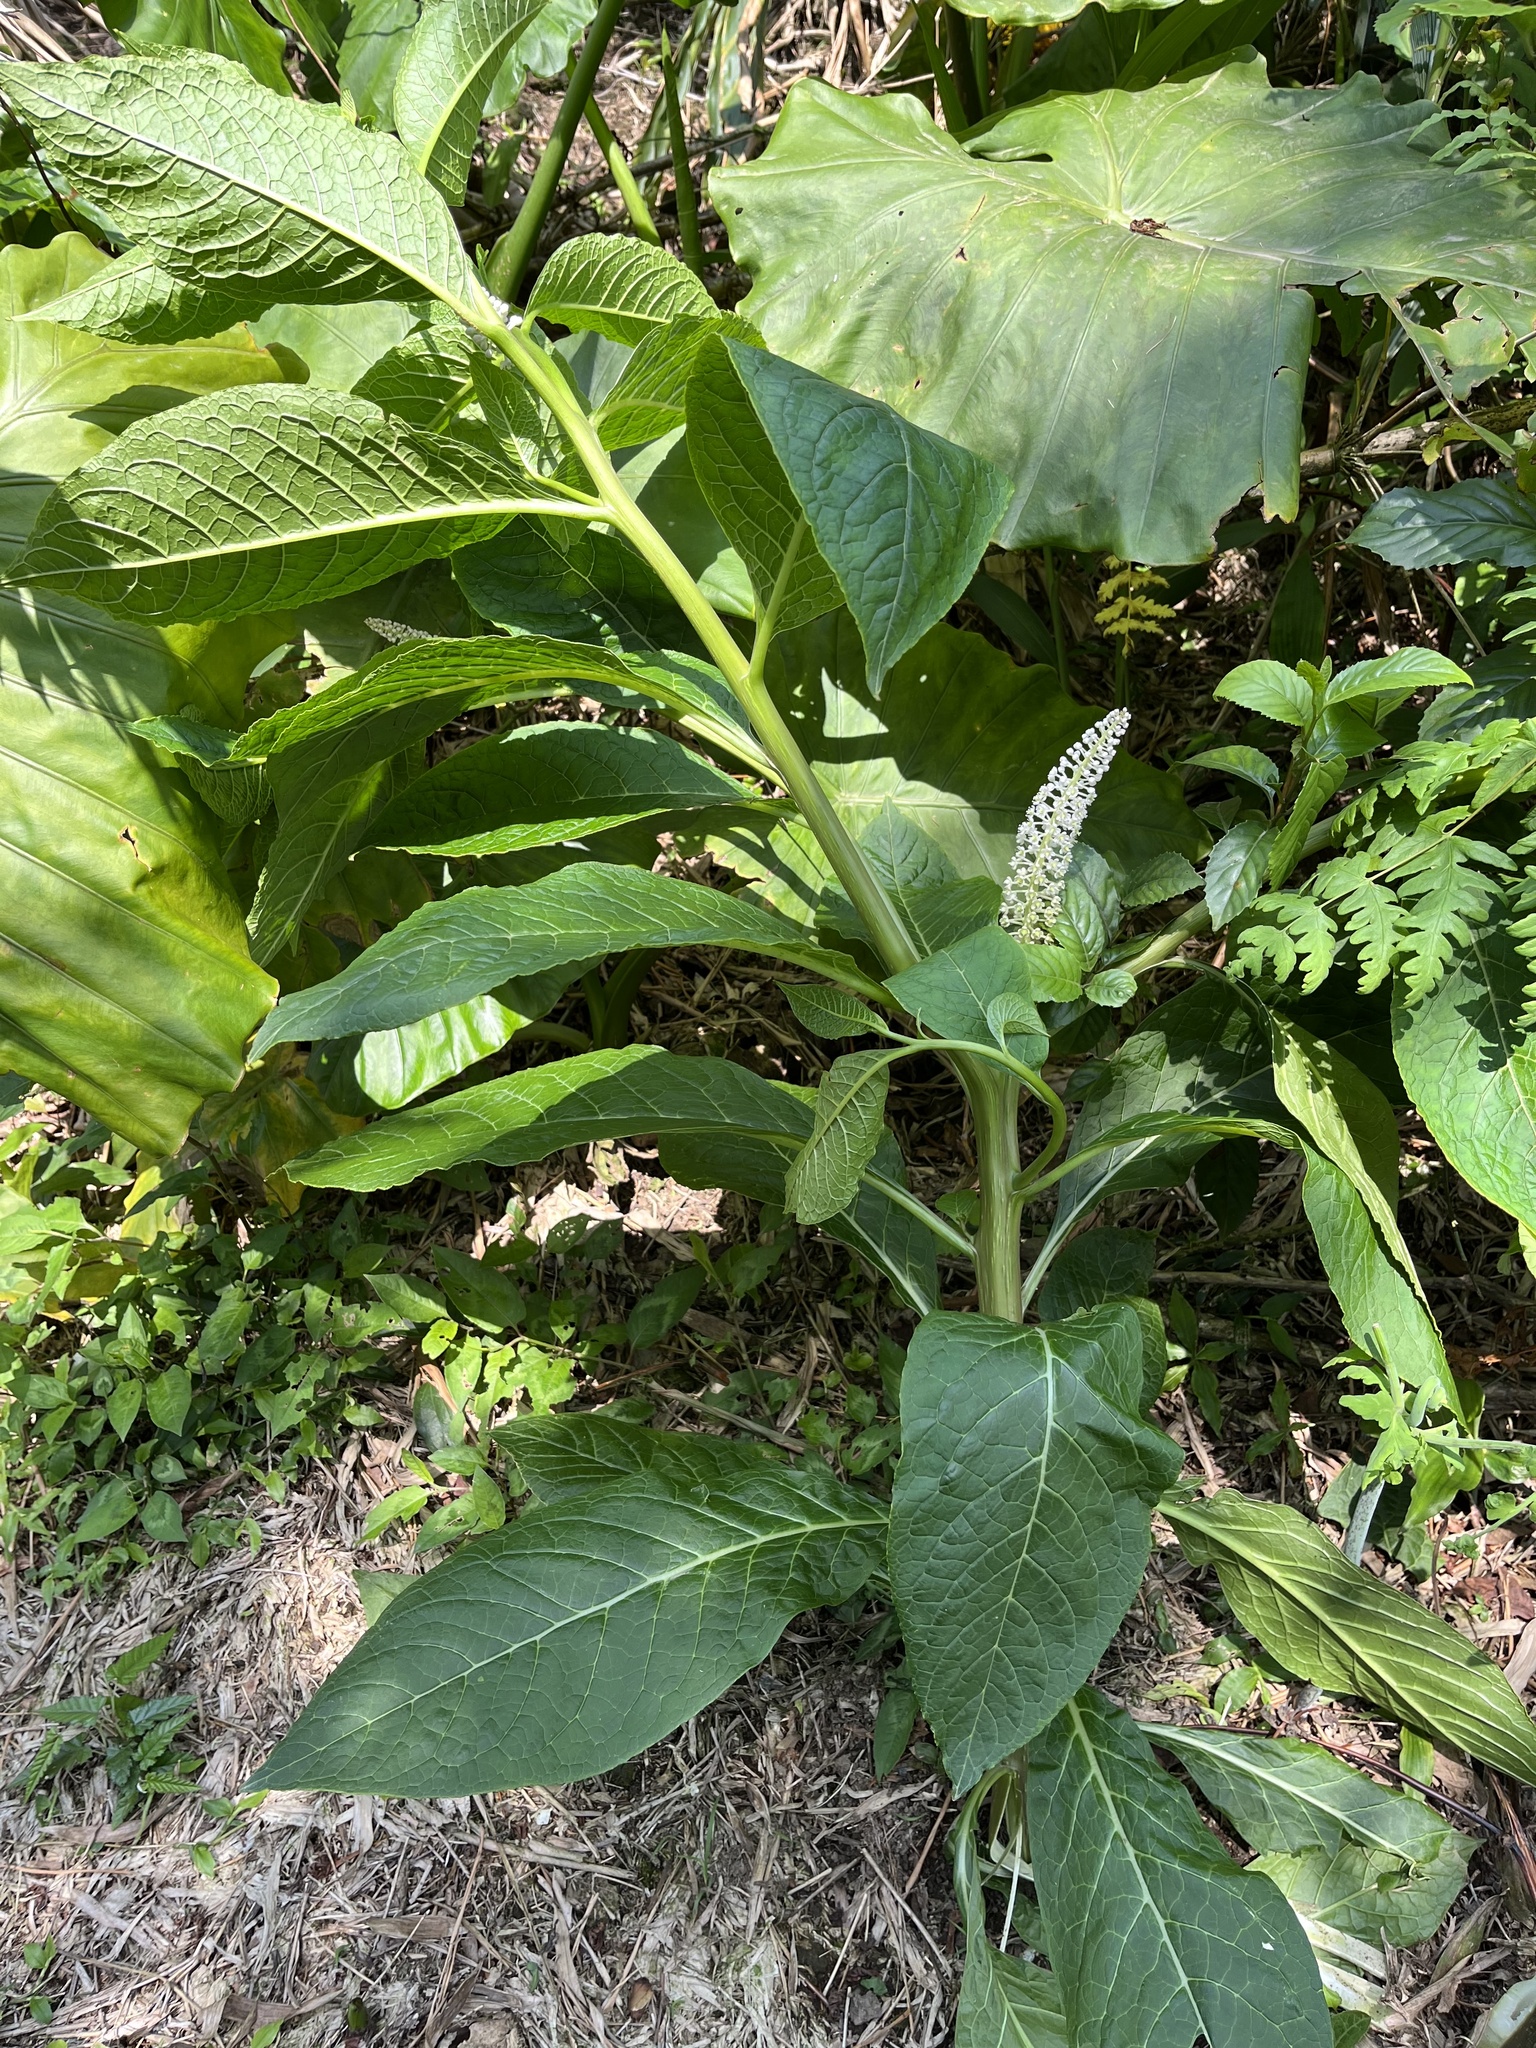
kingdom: Plantae
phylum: Tracheophyta
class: Magnoliopsida
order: Caryophyllales
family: Phytolaccaceae
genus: Phytolacca
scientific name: Phytolacca japonica
